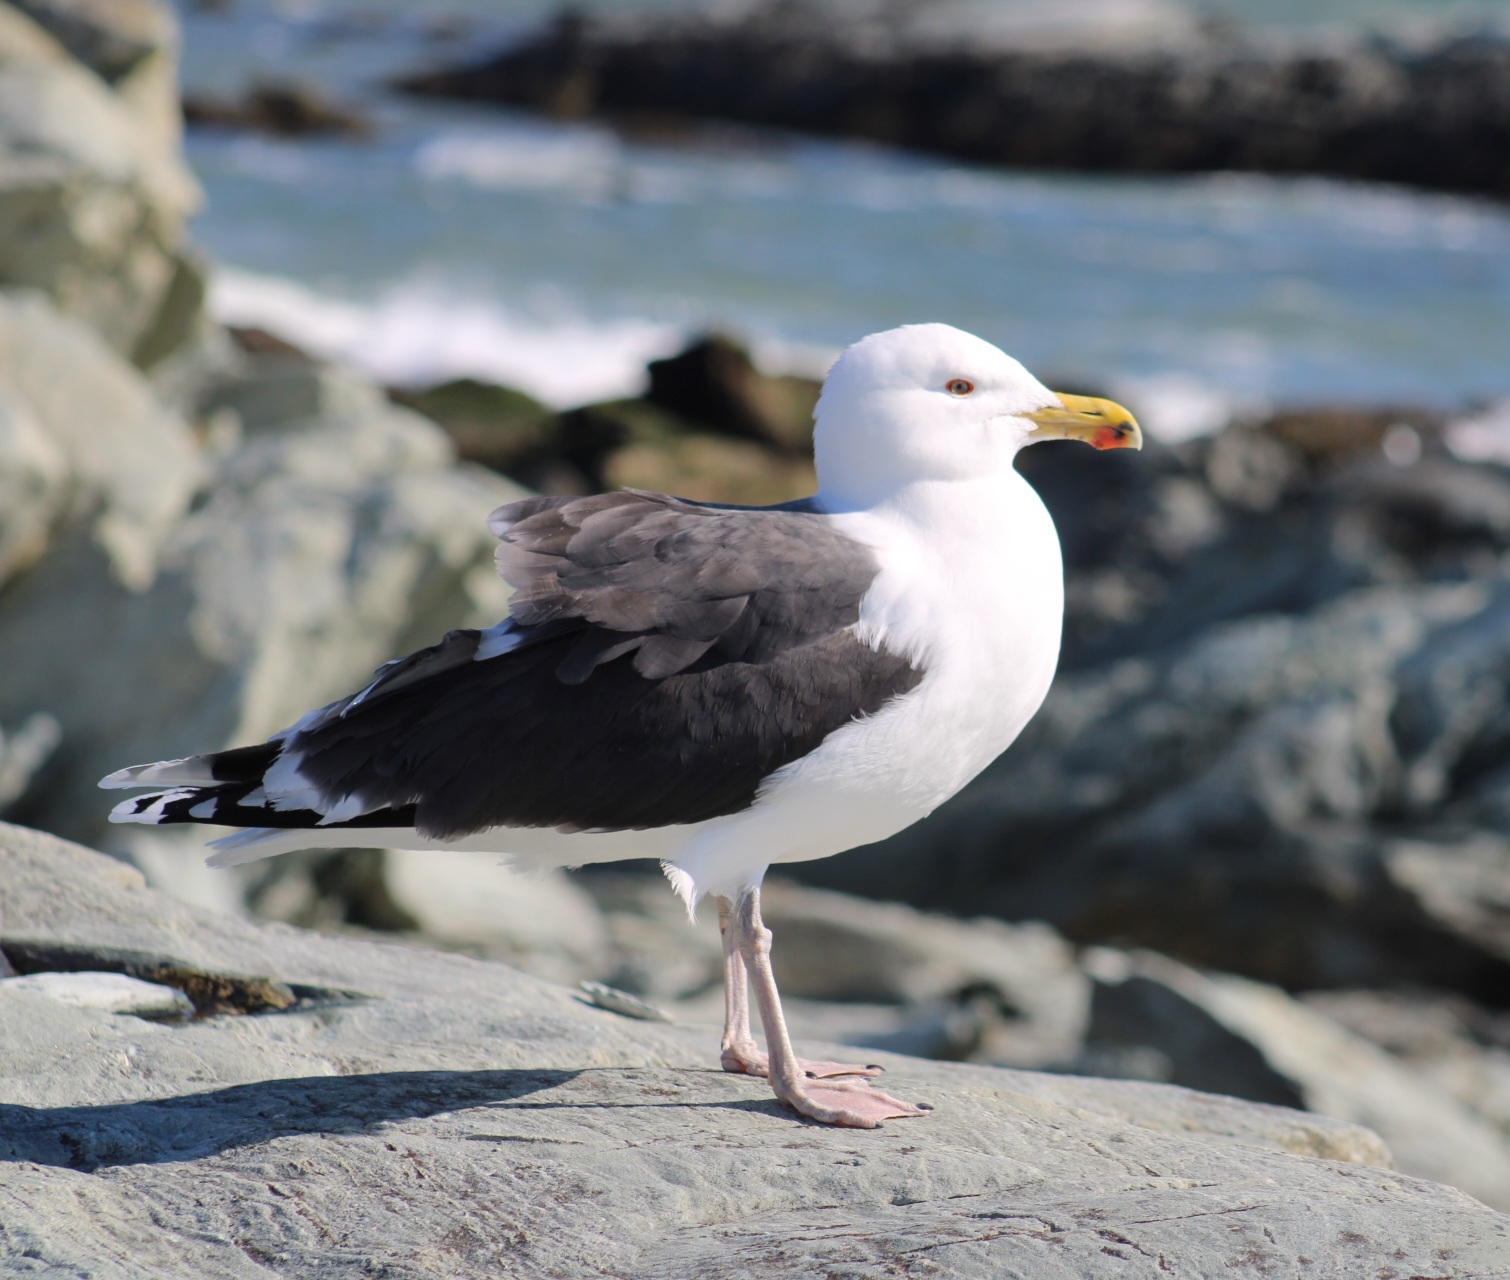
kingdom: Animalia
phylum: Chordata
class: Aves
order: Charadriiformes
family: Laridae
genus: Larus
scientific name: Larus marinus
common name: Great black-backed gull
